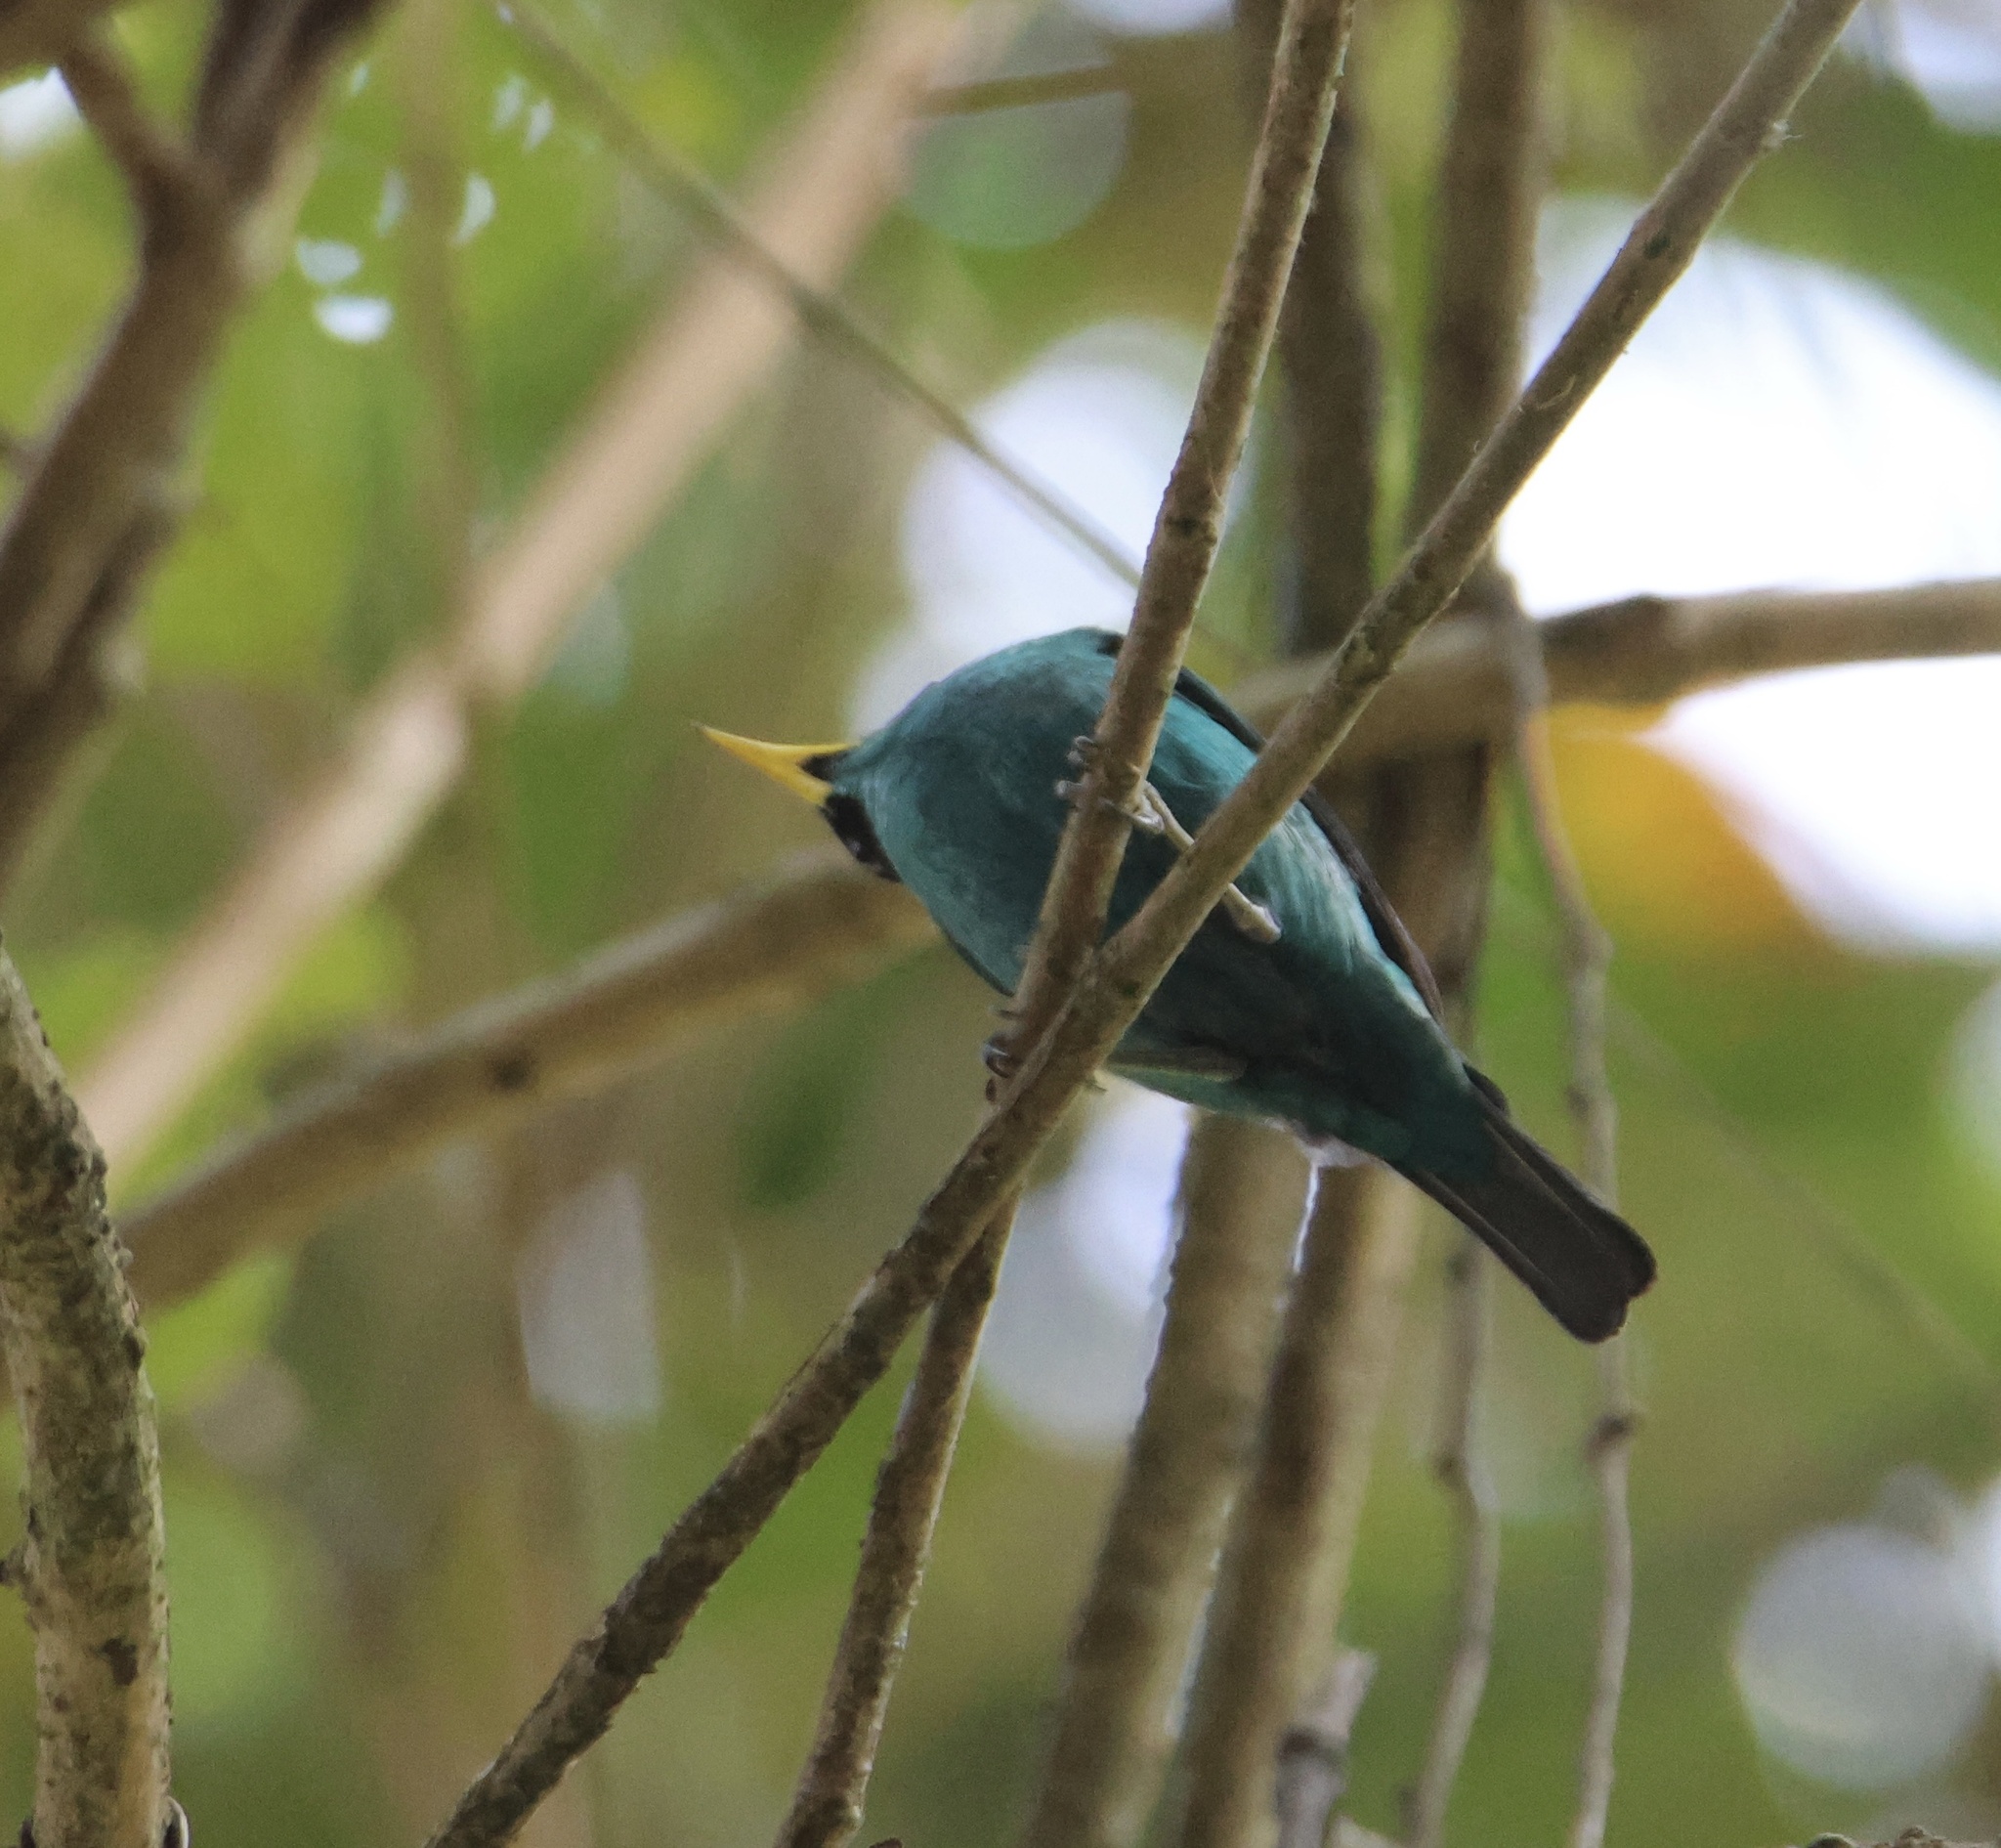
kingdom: Animalia
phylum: Chordata
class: Aves
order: Passeriformes
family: Thraupidae
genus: Chlorophanes
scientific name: Chlorophanes spiza
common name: Green honeycreeper
